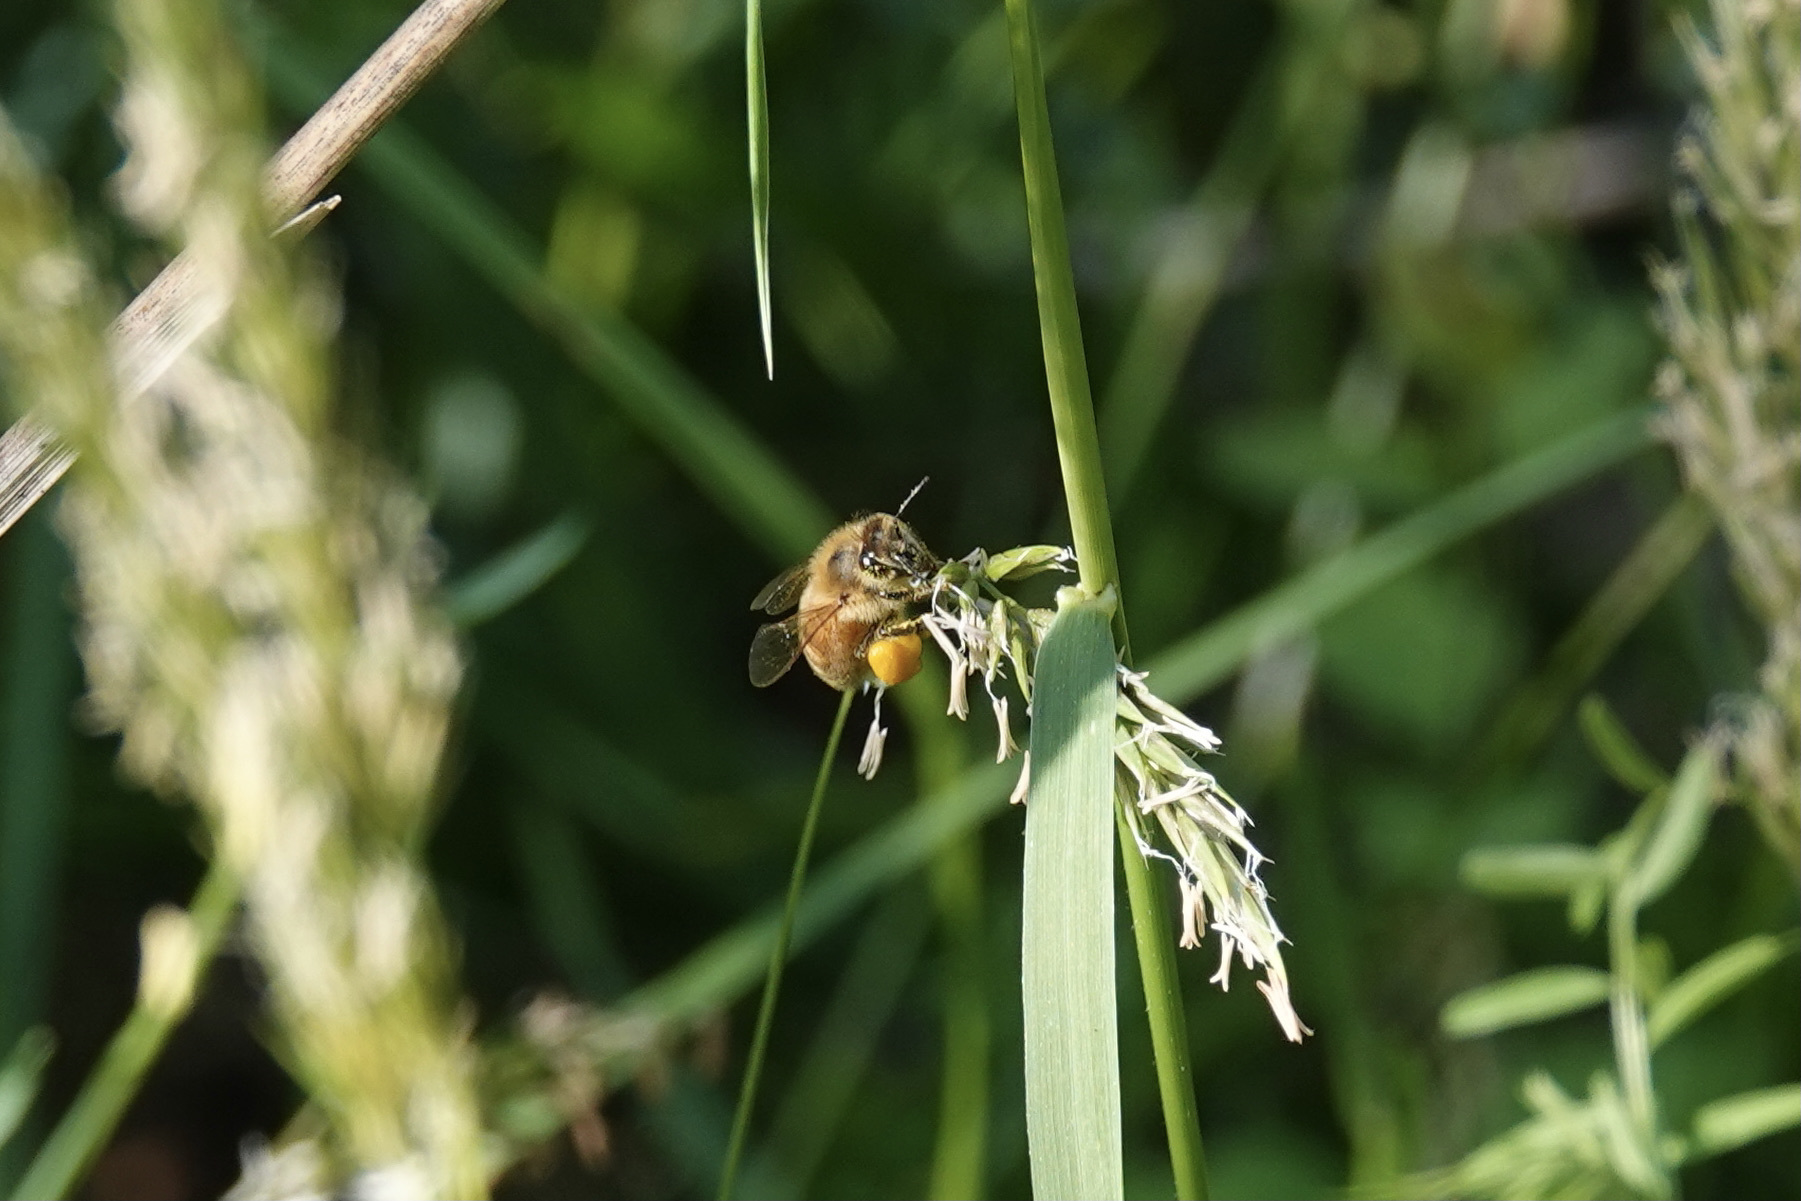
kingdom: Animalia
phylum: Arthropoda
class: Insecta
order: Hymenoptera
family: Apidae
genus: Apis
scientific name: Apis mellifera
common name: Honey bee
